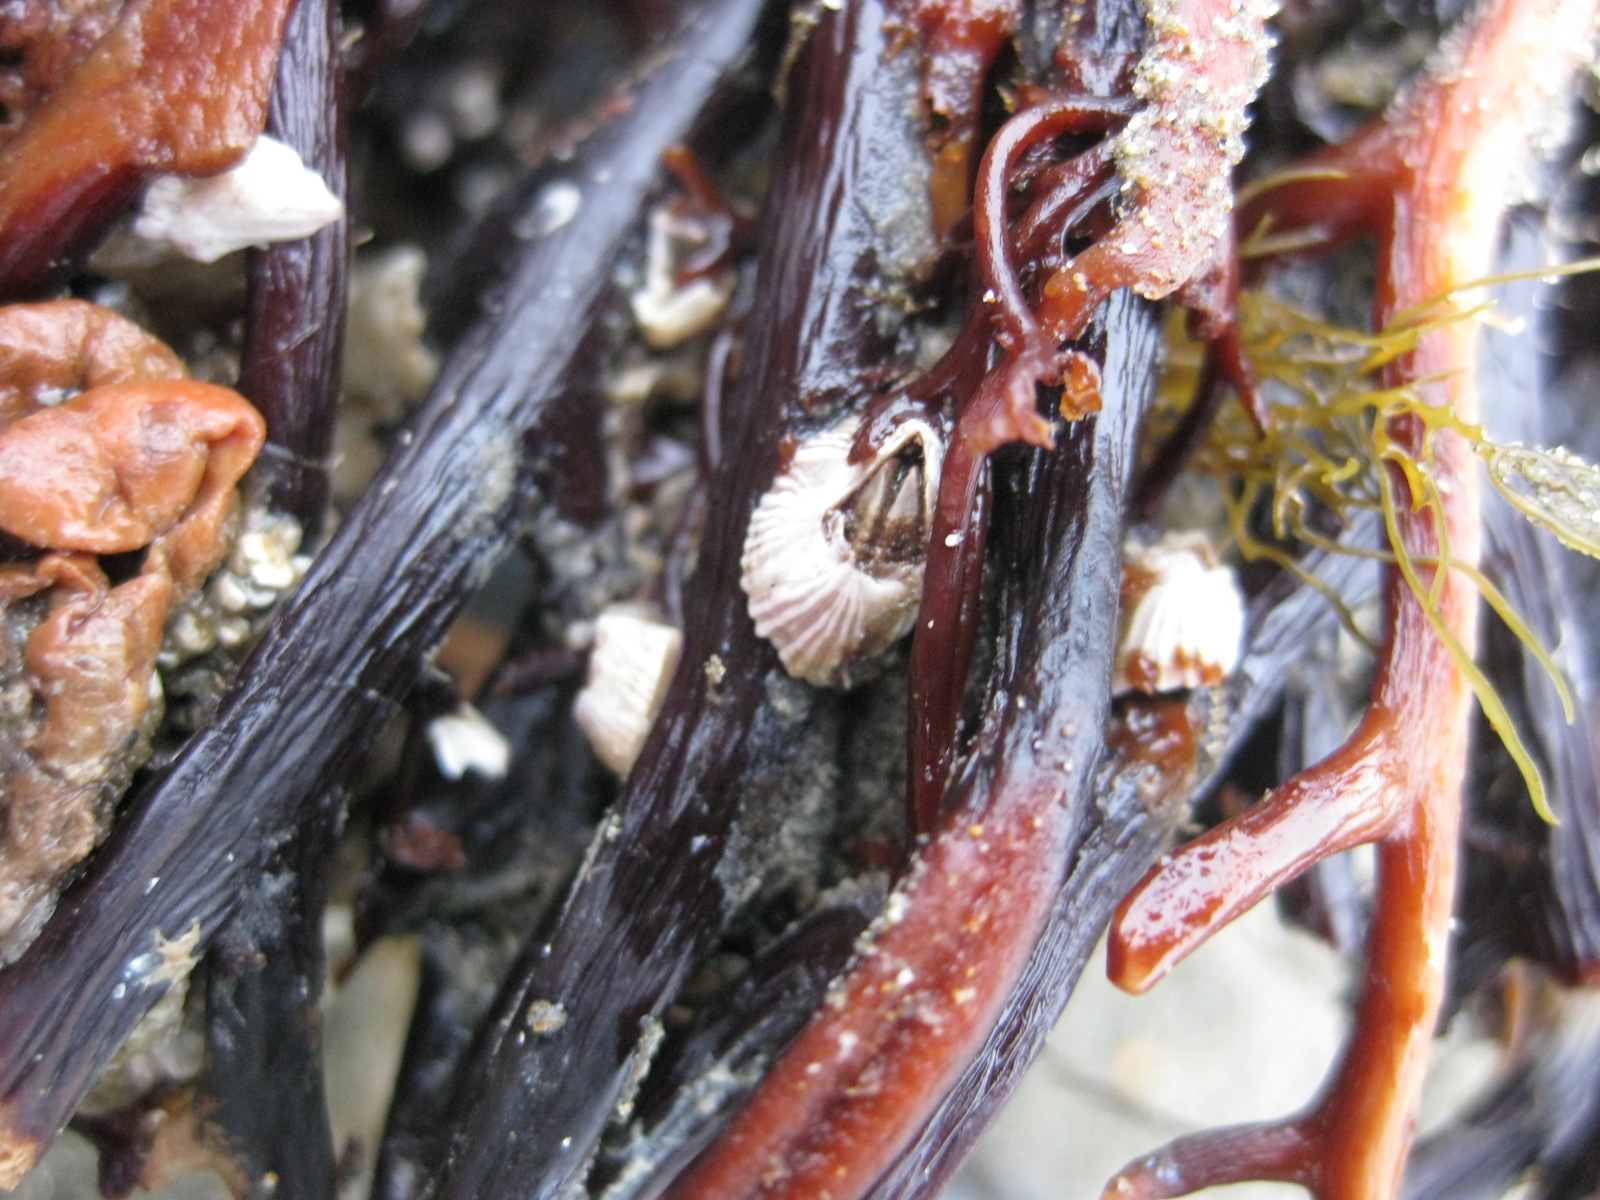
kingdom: Animalia
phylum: Arthropoda
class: Maxillopoda
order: Sessilia
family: Balanidae
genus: Balanus
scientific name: Balanus trigonus
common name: Triangle barnacle
